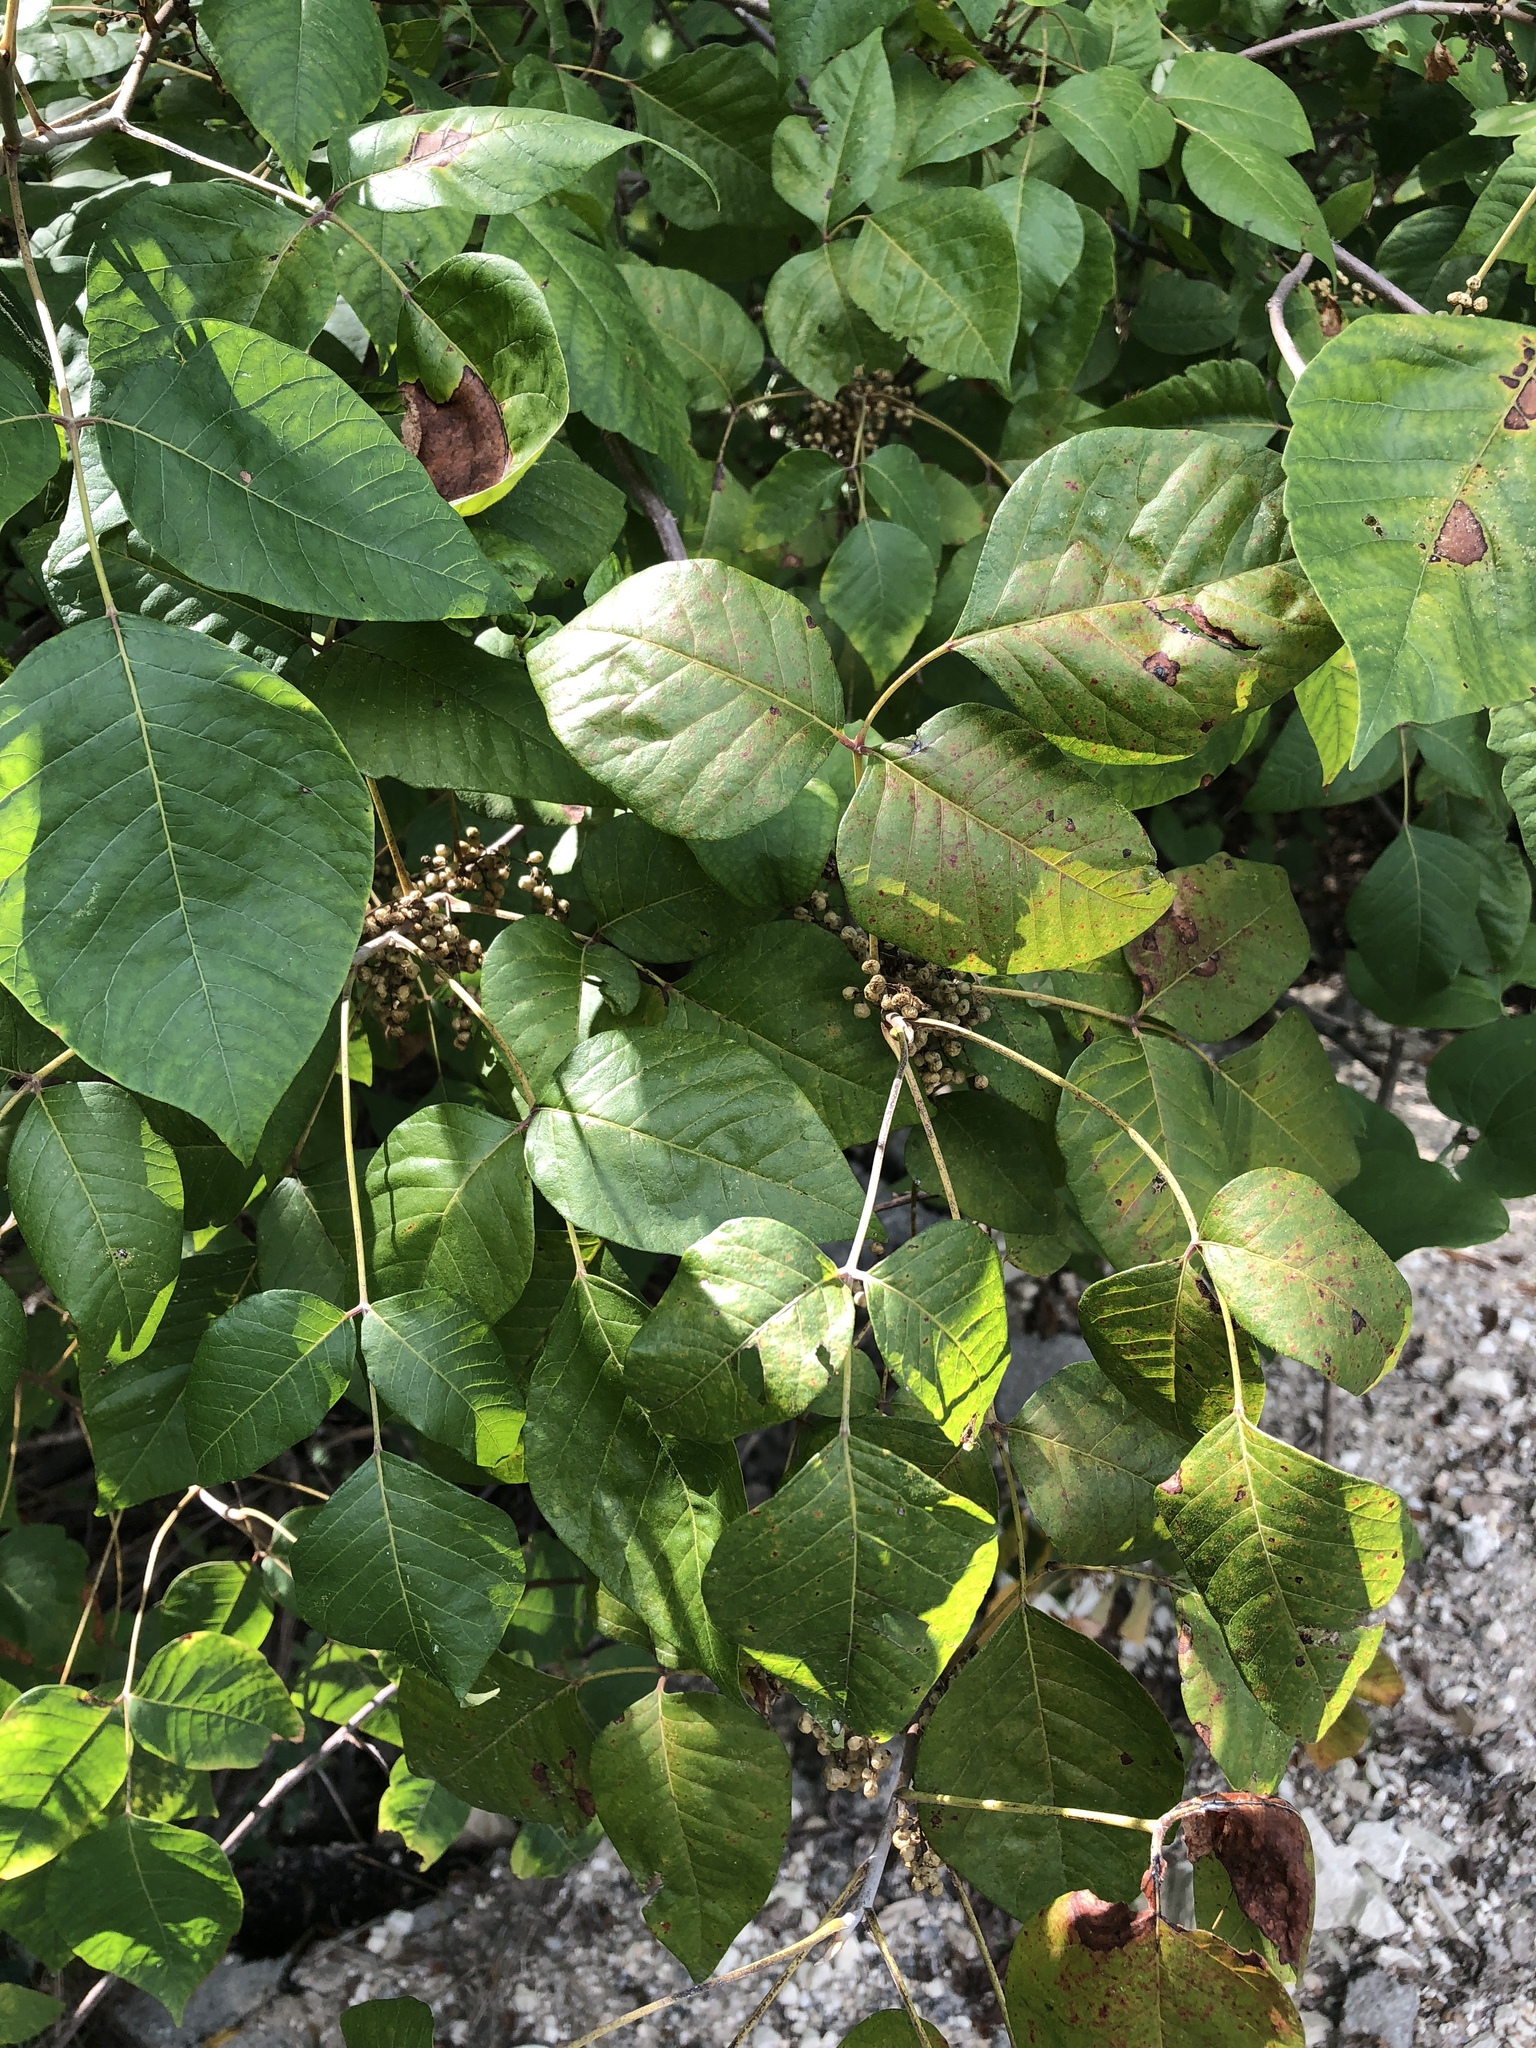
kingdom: Plantae
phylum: Tracheophyta
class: Magnoliopsida
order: Sapindales
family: Anacardiaceae
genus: Toxicodendron
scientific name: Toxicodendron radicans
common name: Poison ivy
